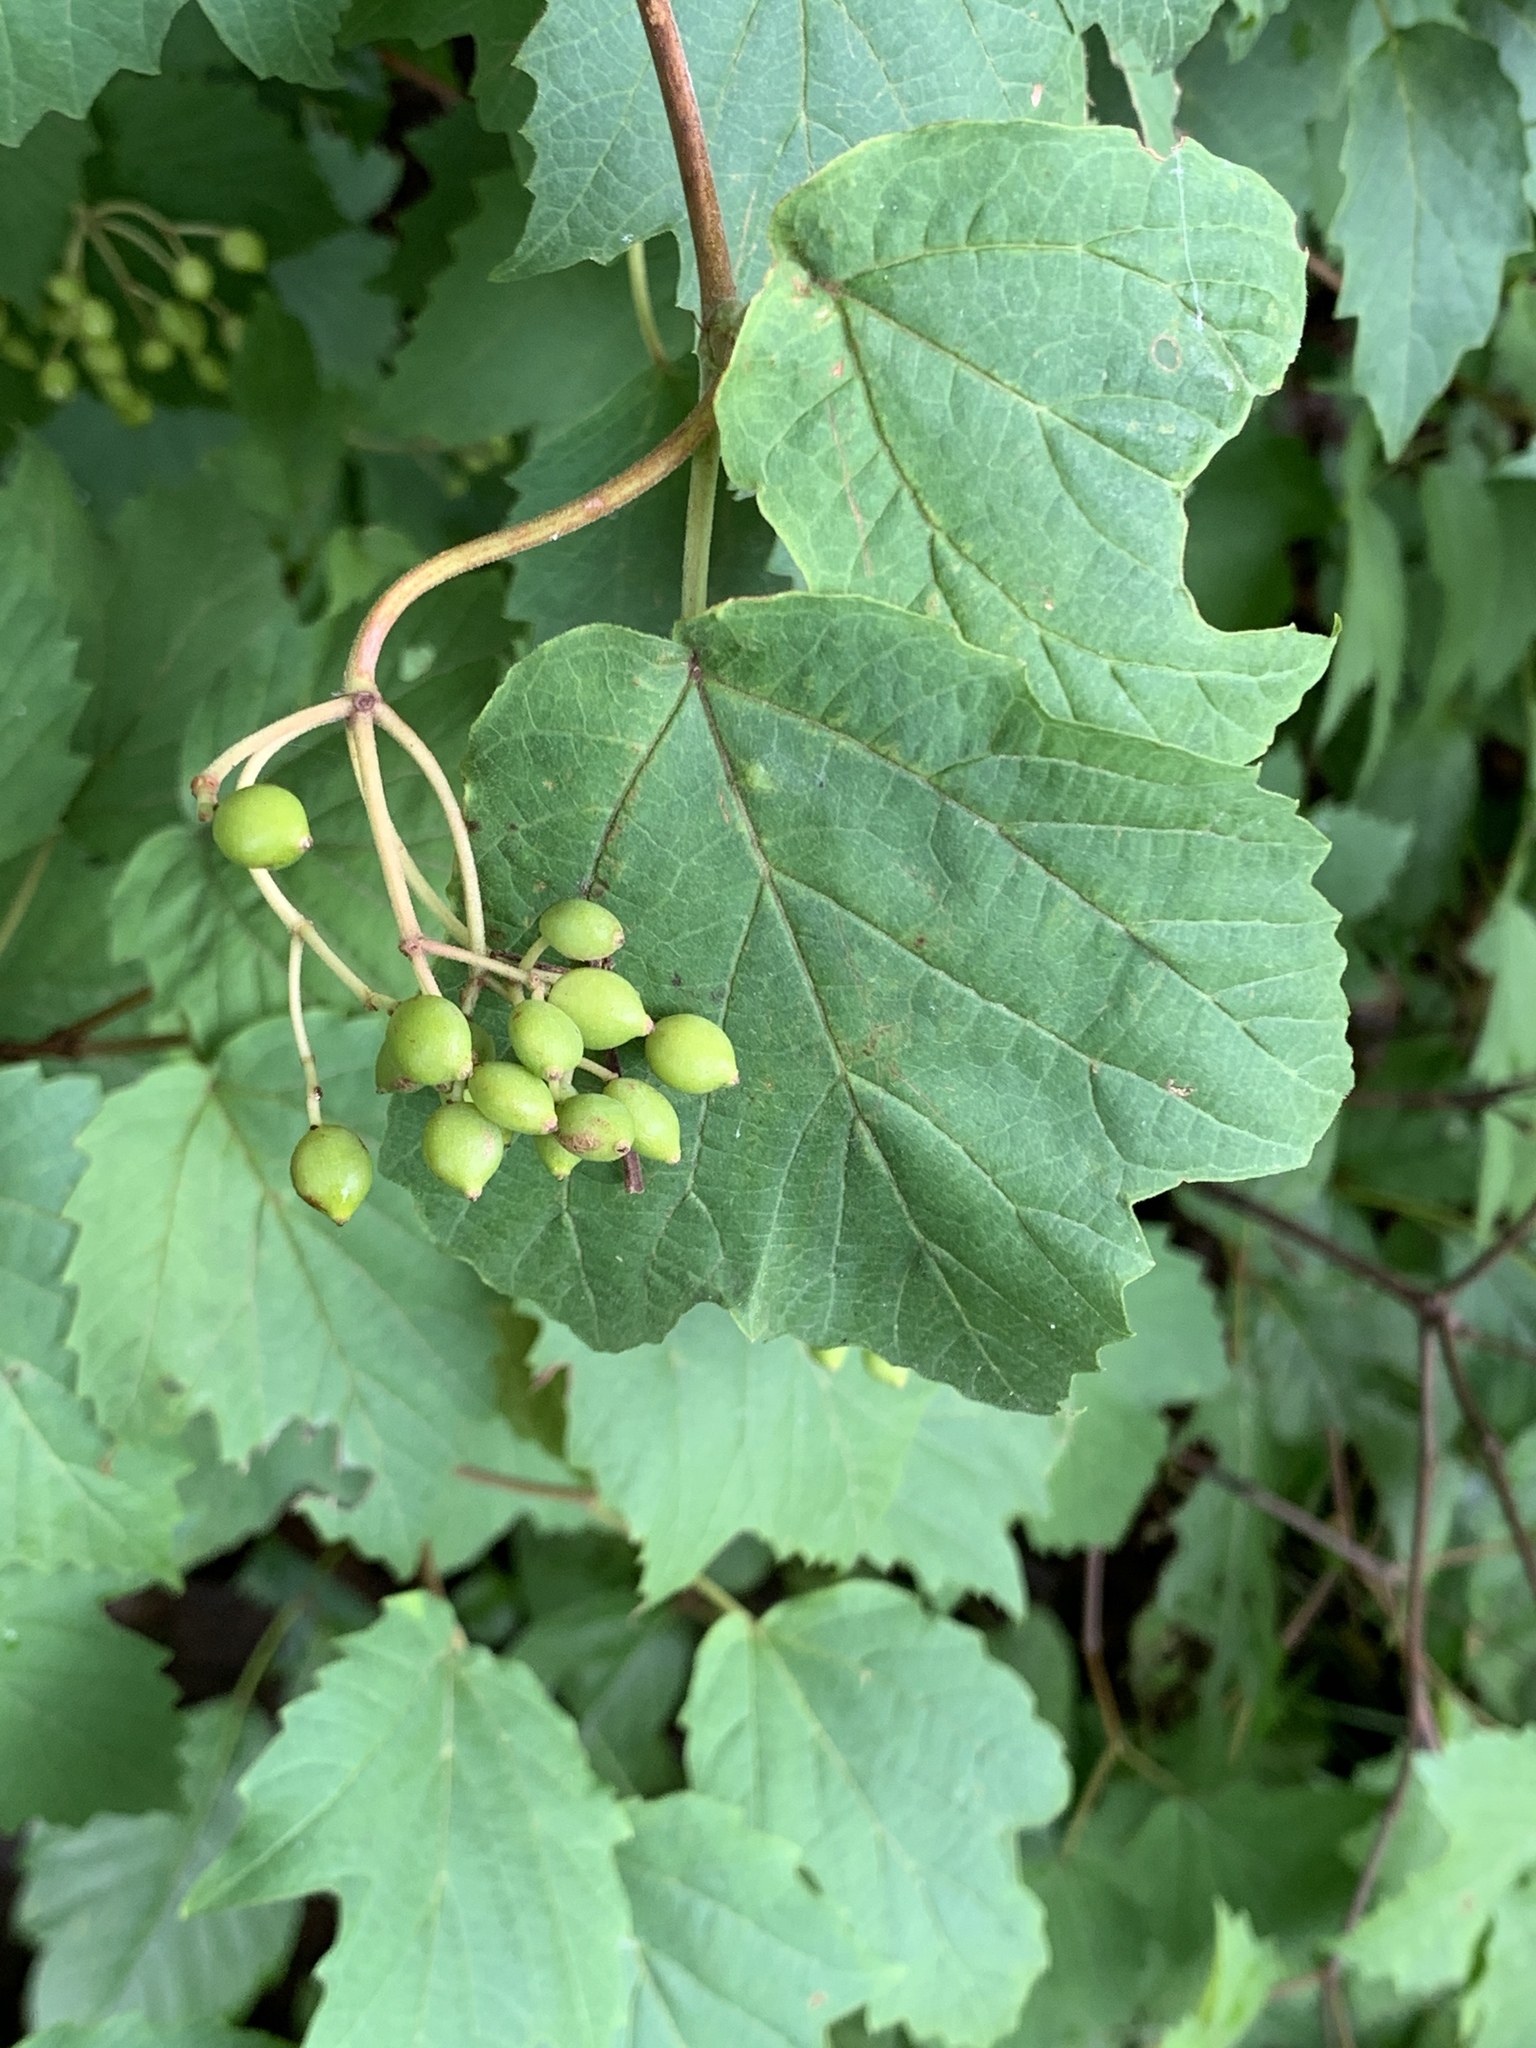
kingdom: Plantae
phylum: Tracheophyta
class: Magnoliopsida
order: Dipsacales
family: Viburnaceae
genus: Viburnum
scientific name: Viburnum acerifolium
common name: Dockmackie
